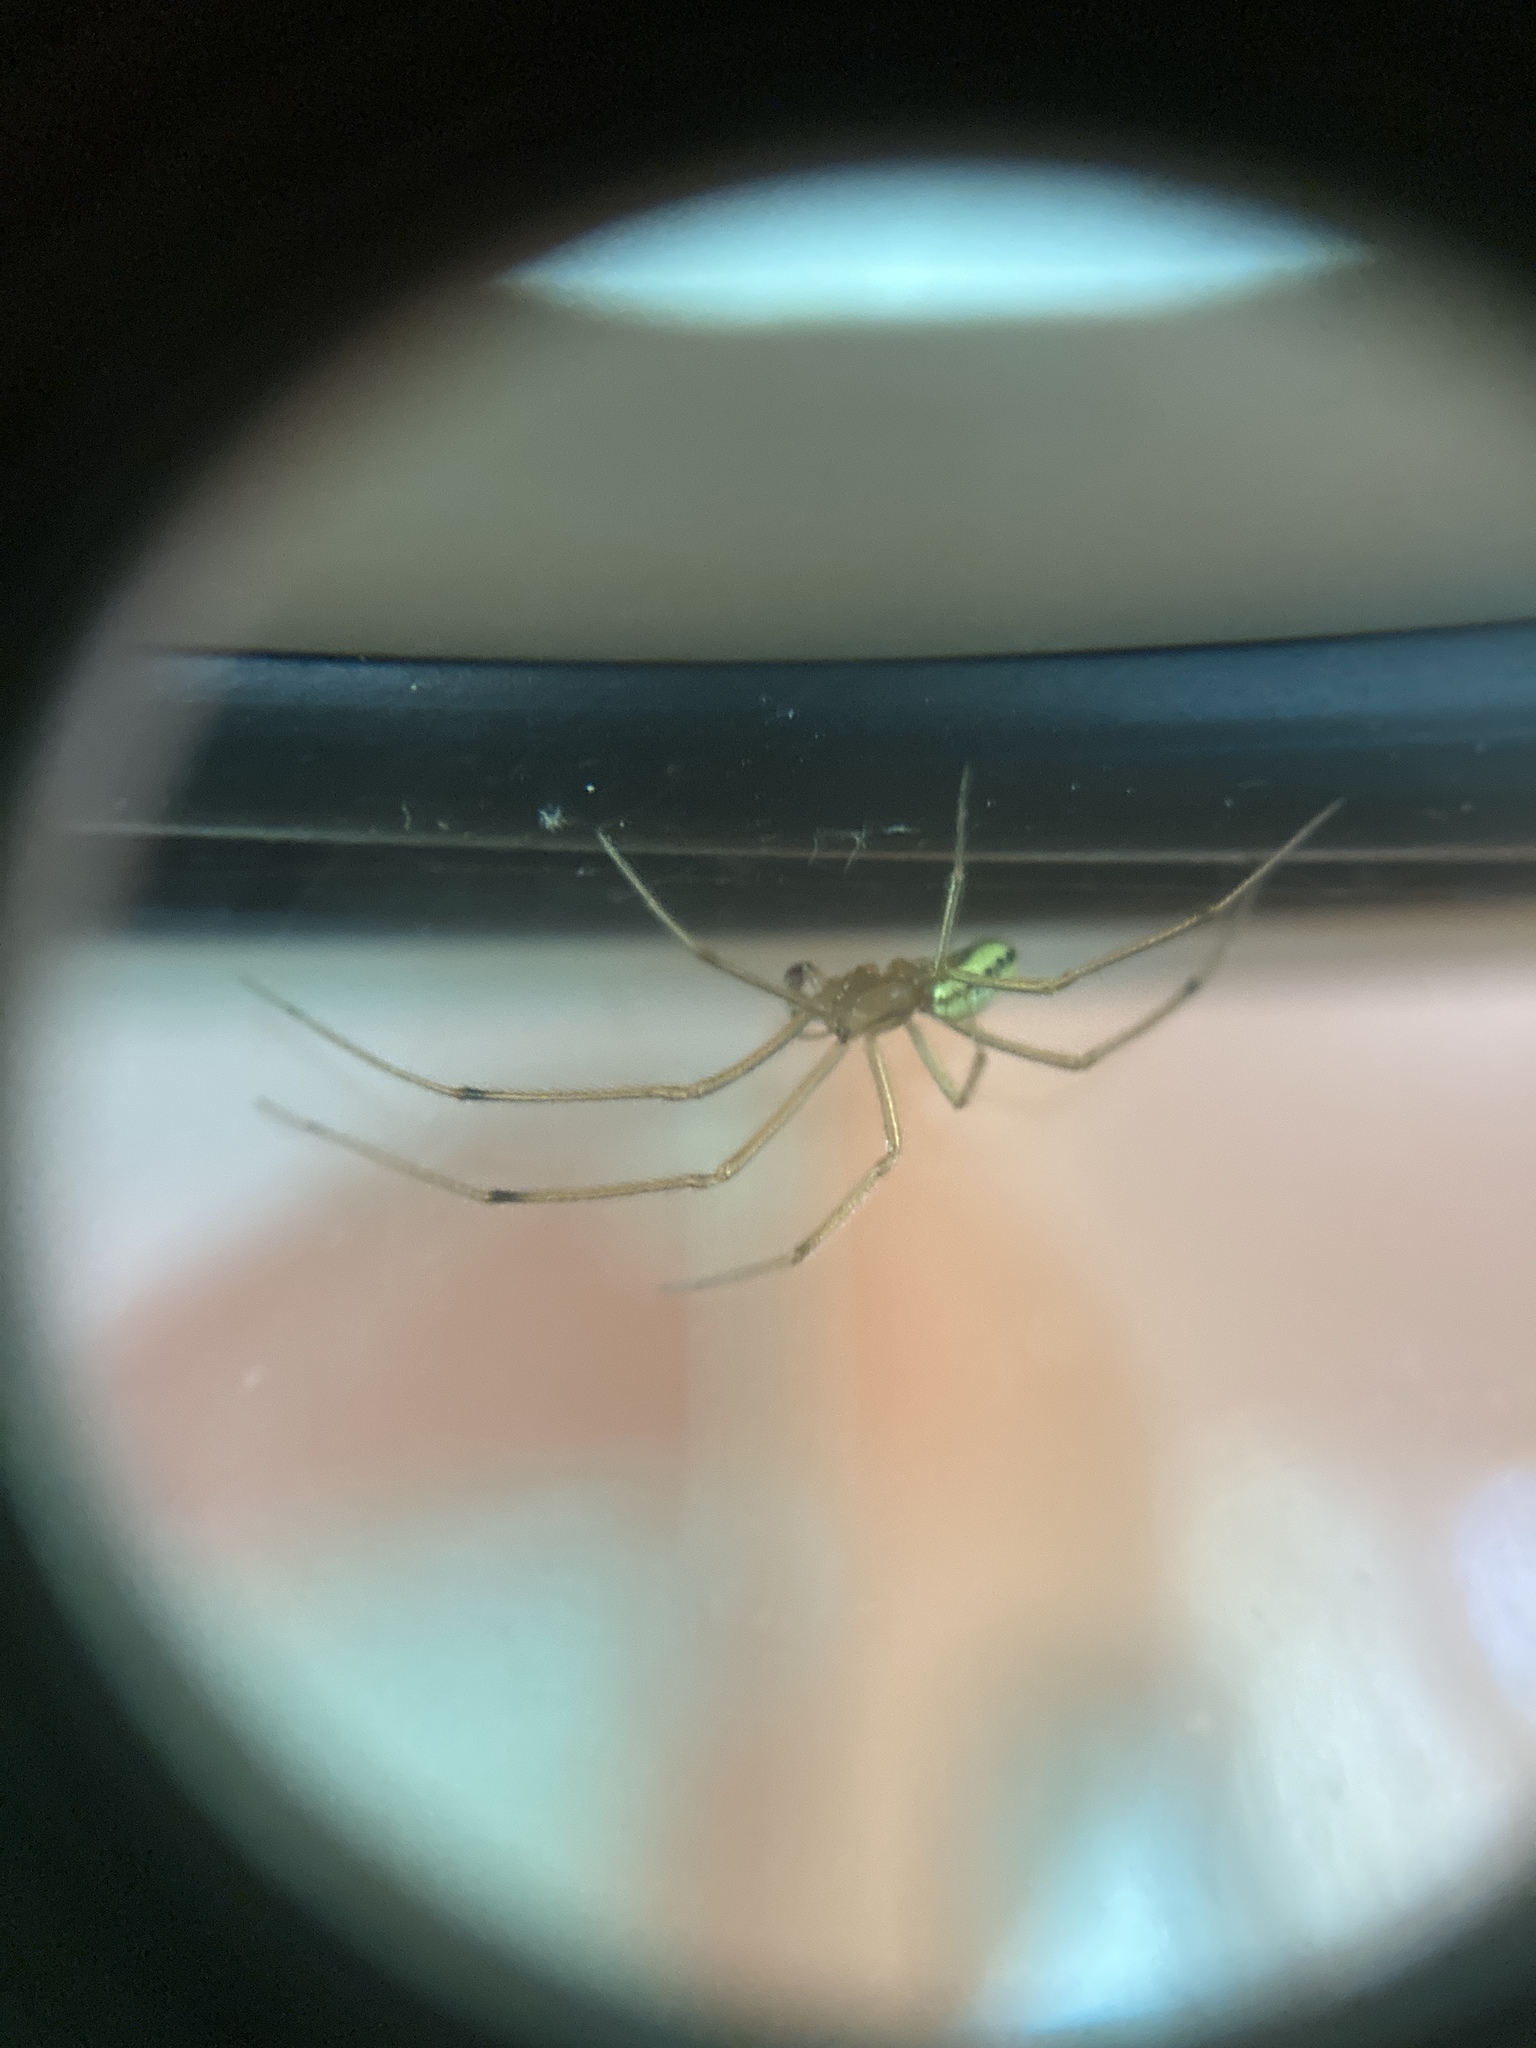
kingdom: Animalia
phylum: Arthropoda
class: Arachnida
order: Araneae
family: Theridiidae
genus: Enoplognatha
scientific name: Enoplognatha ovata
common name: Common candy-striped spider
